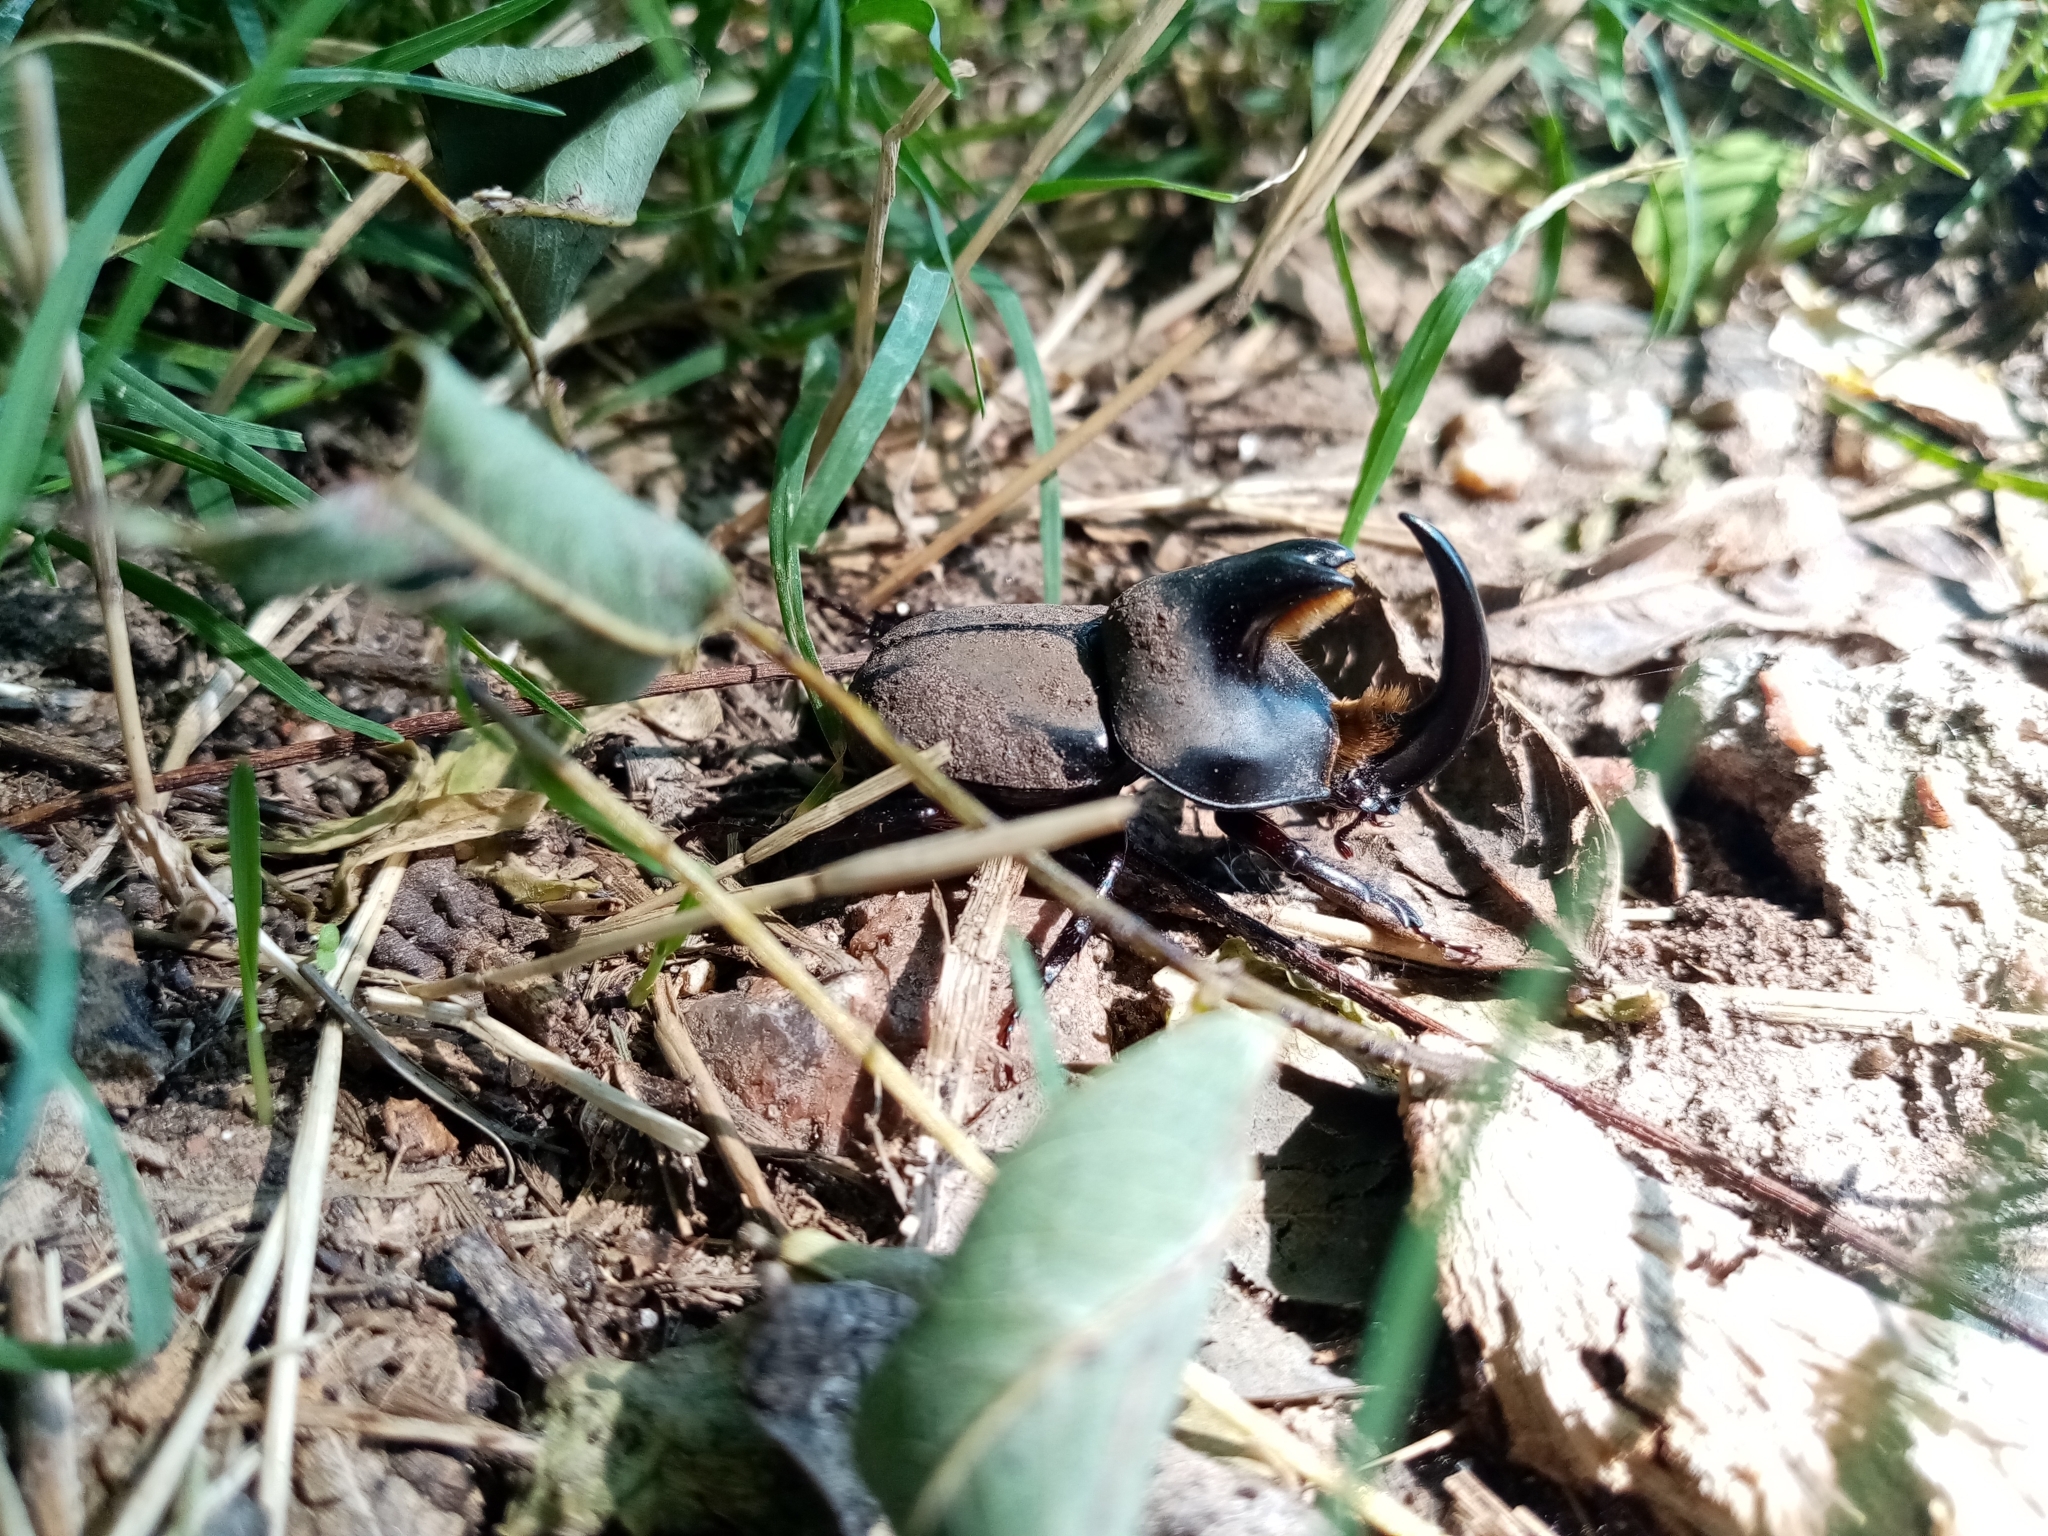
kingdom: Animalia
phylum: Arthropoda
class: Insecta
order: Coleoptera
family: Scarabaeidae
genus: Diloboderus
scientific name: Diloboderus abderus
